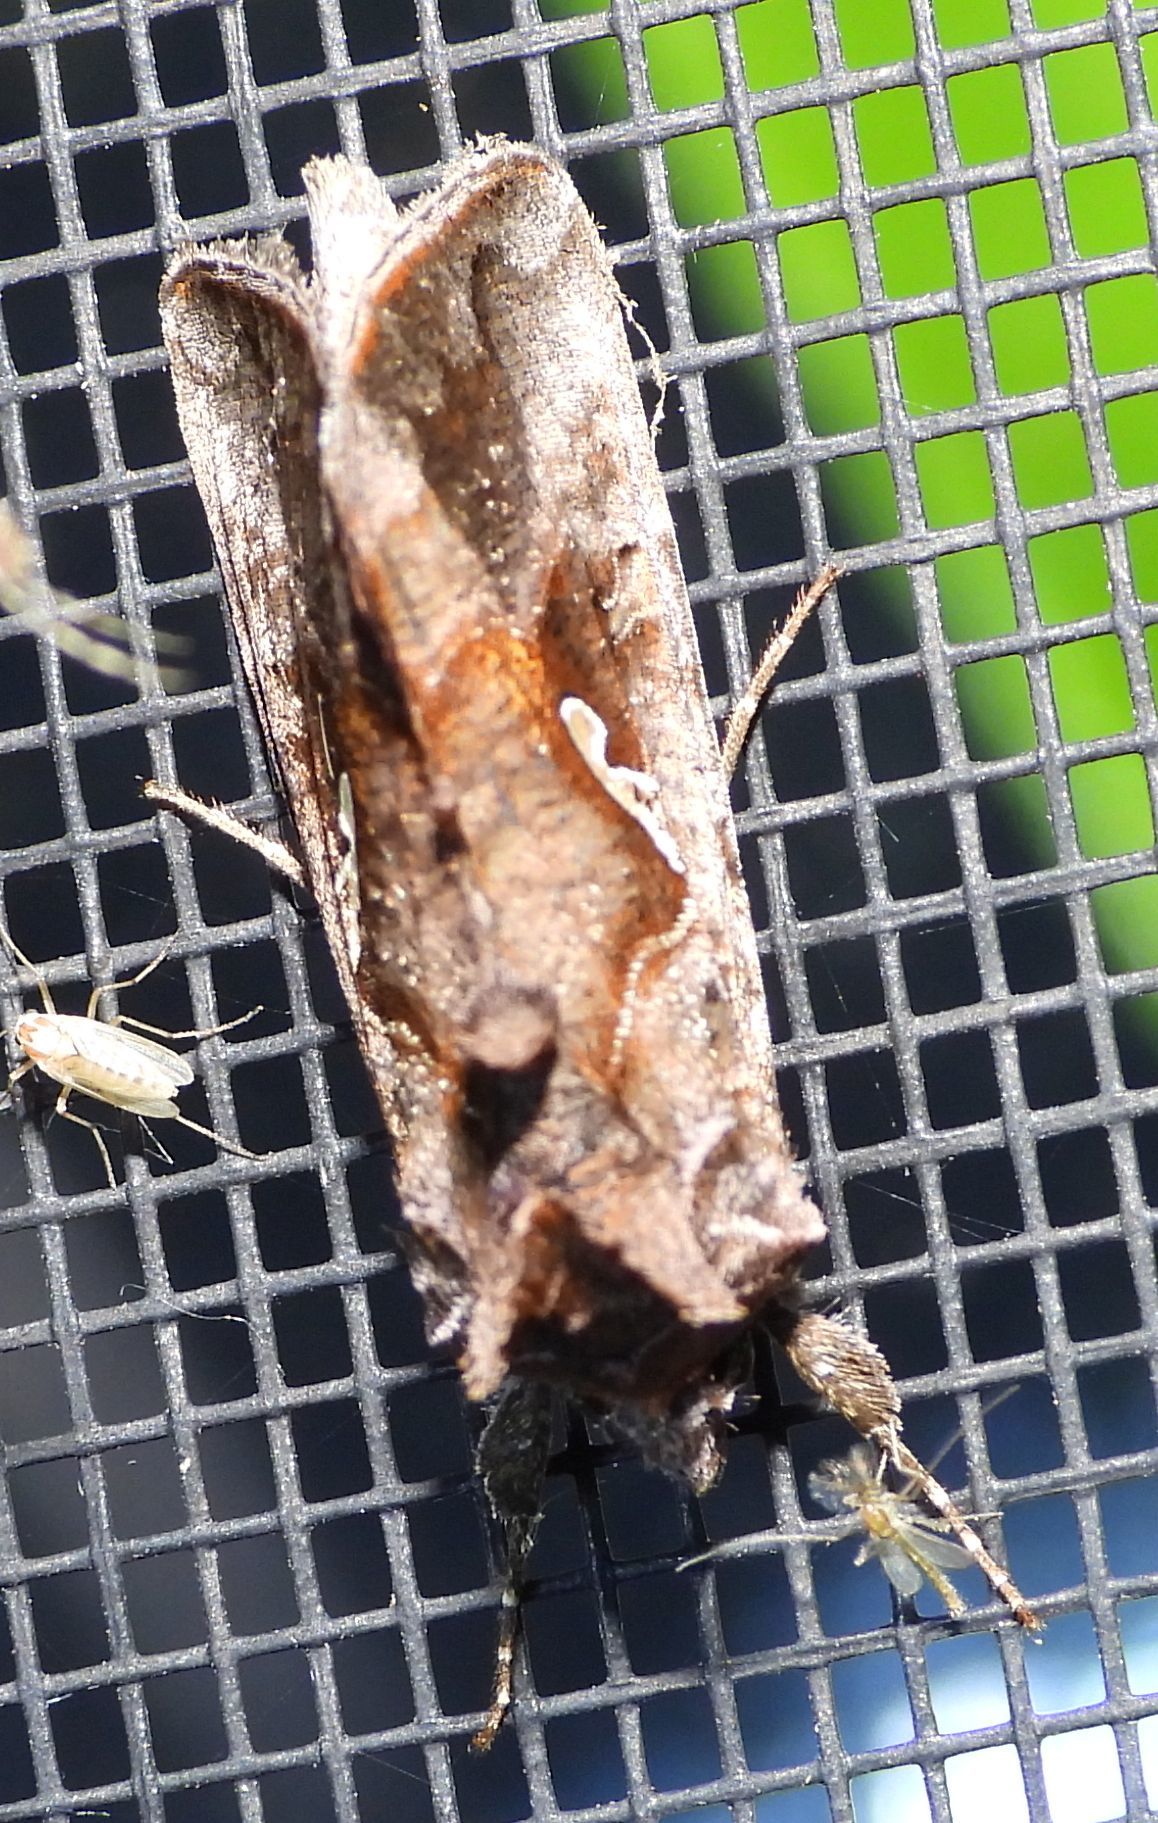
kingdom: Animalia
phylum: Arthropoda
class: Insecta
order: Lepidoptera
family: Noctuidae
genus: Autographa
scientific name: Autographa precationis
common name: Common looper moth
